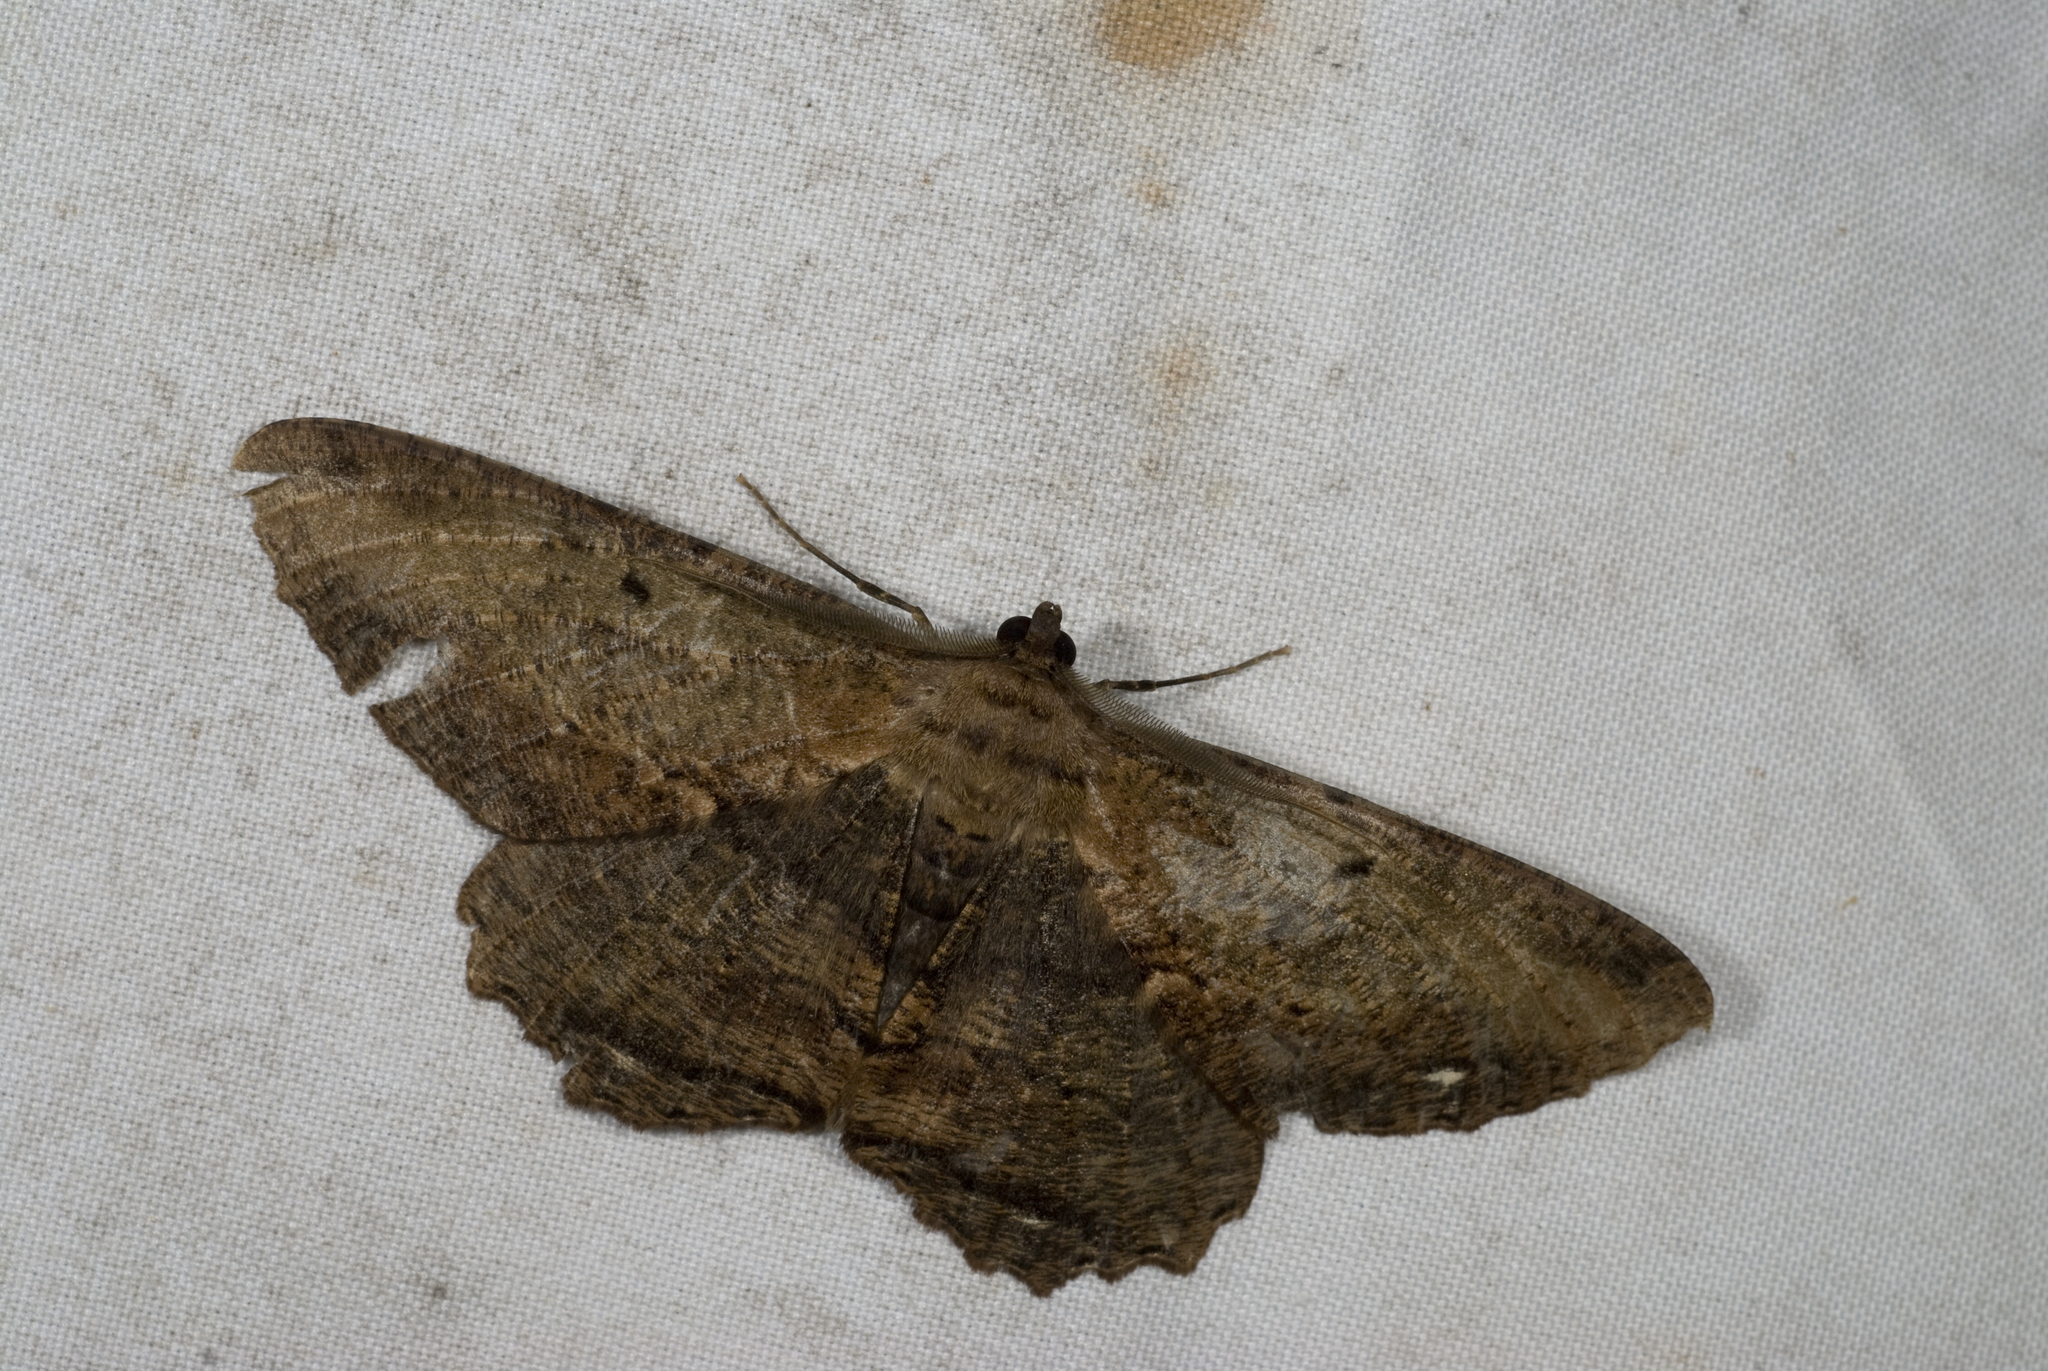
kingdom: Animalia
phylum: Arthropoda
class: Insecta
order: Lepidoptera
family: Geometridae
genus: Chorodna
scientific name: Chorodna creataria
